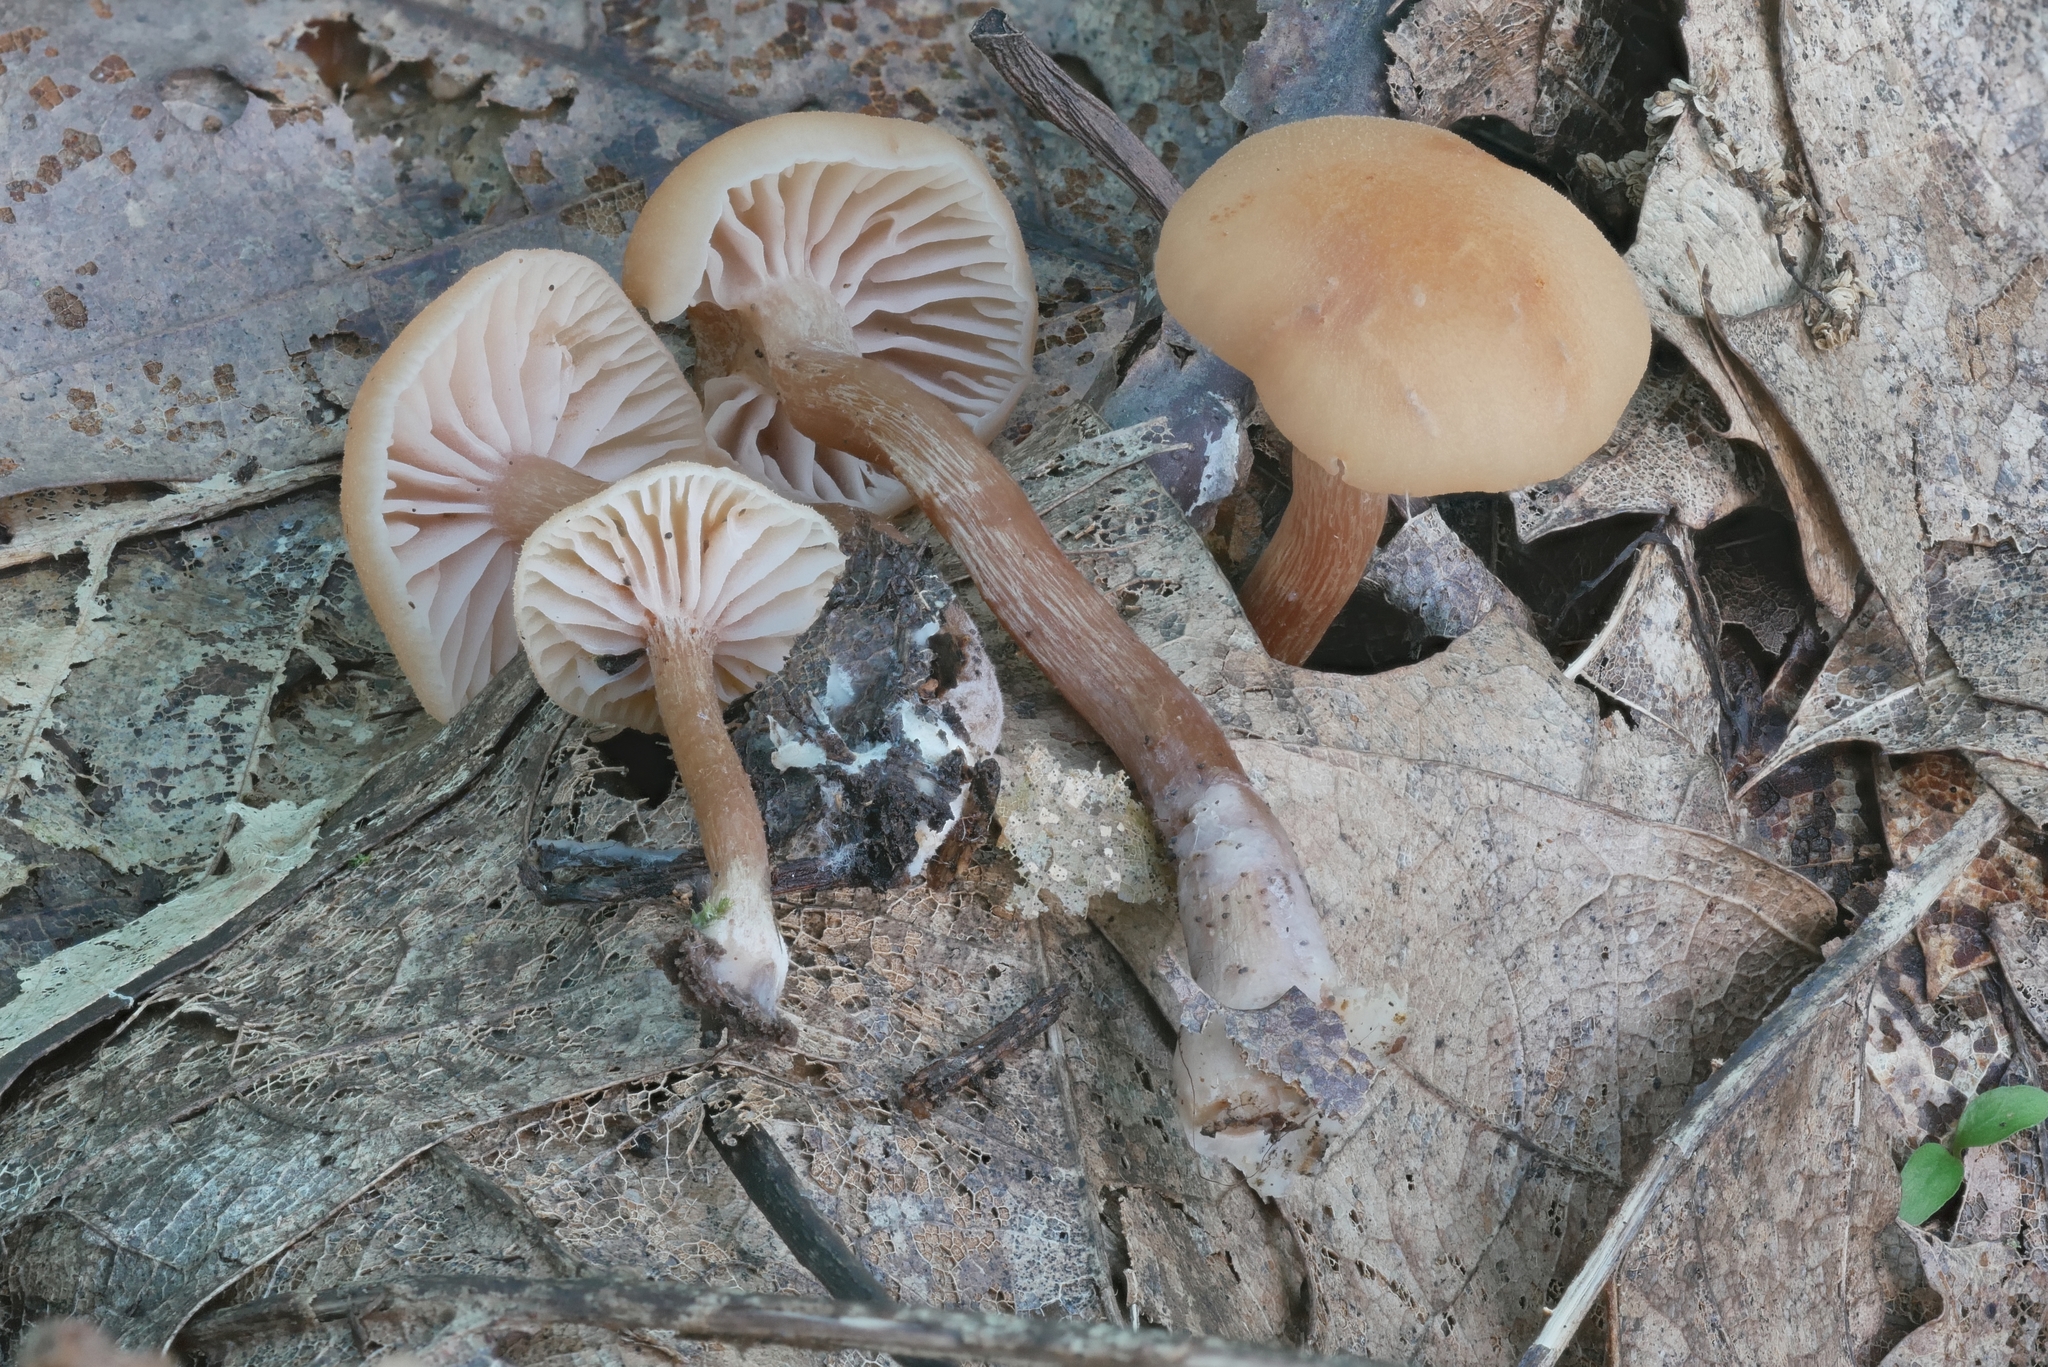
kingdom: Fungi
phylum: Basidiomycota
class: Agaricomycetes
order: Agaricales
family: Hydnangiaceae
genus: Laccaria
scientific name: Laccaria laccata
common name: Deceiver
